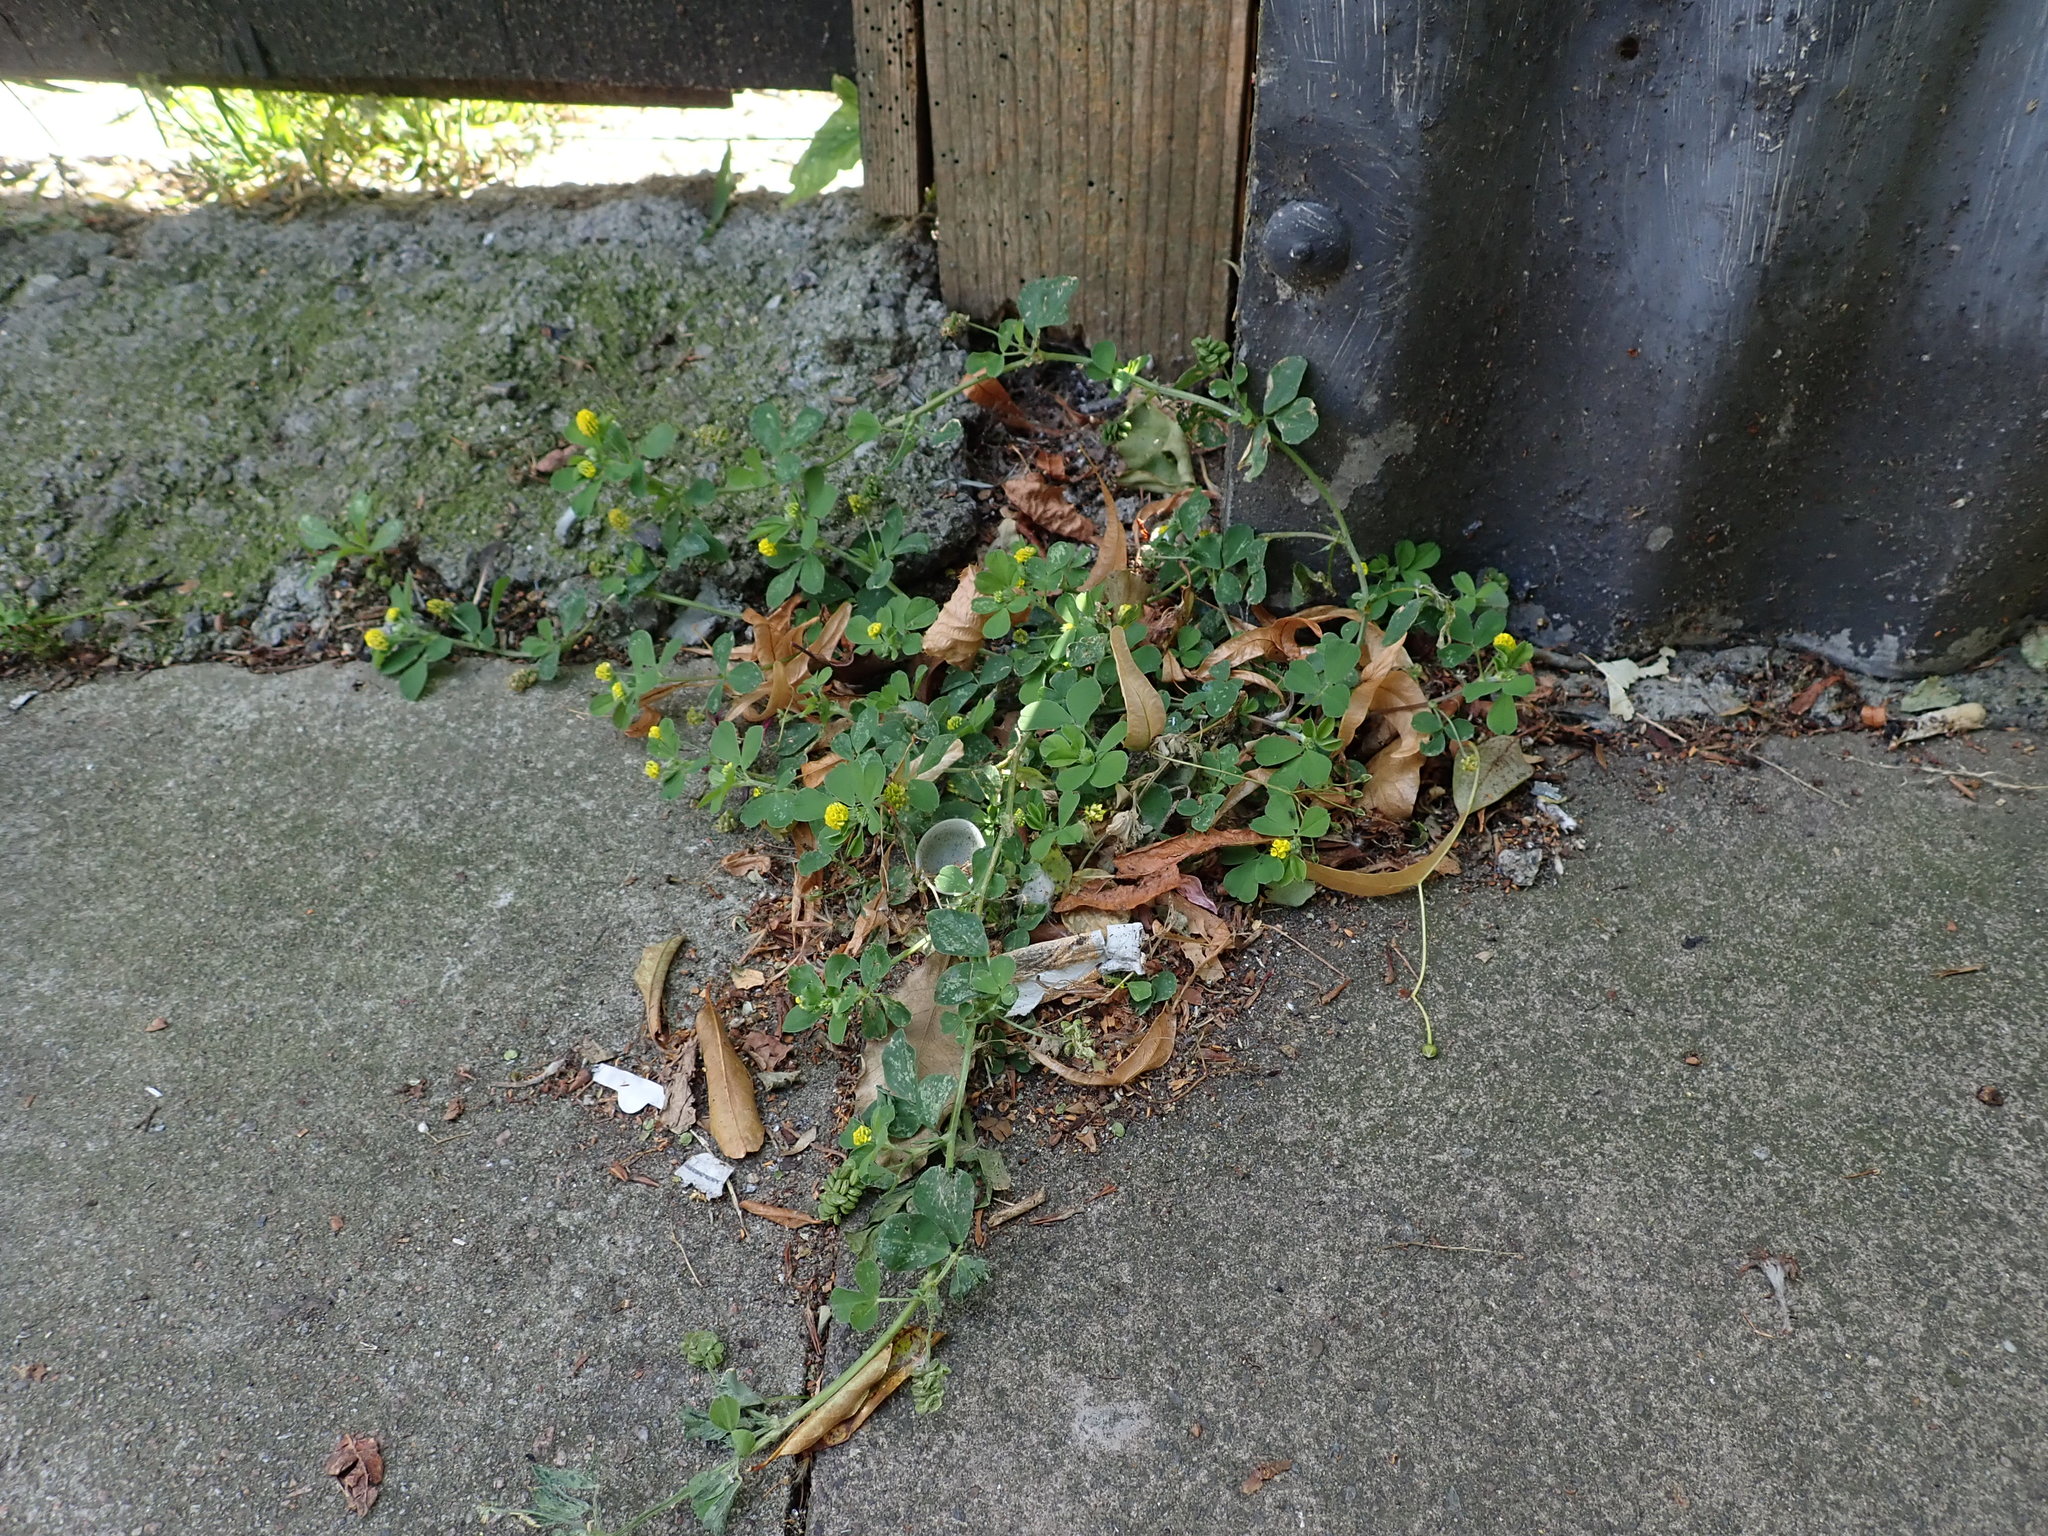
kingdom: Plantae
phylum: Tracheophyta
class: Magnoliopsida
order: Fabales
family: Fabaceae
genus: Medicago
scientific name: Medicago lupulina
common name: Black medick
